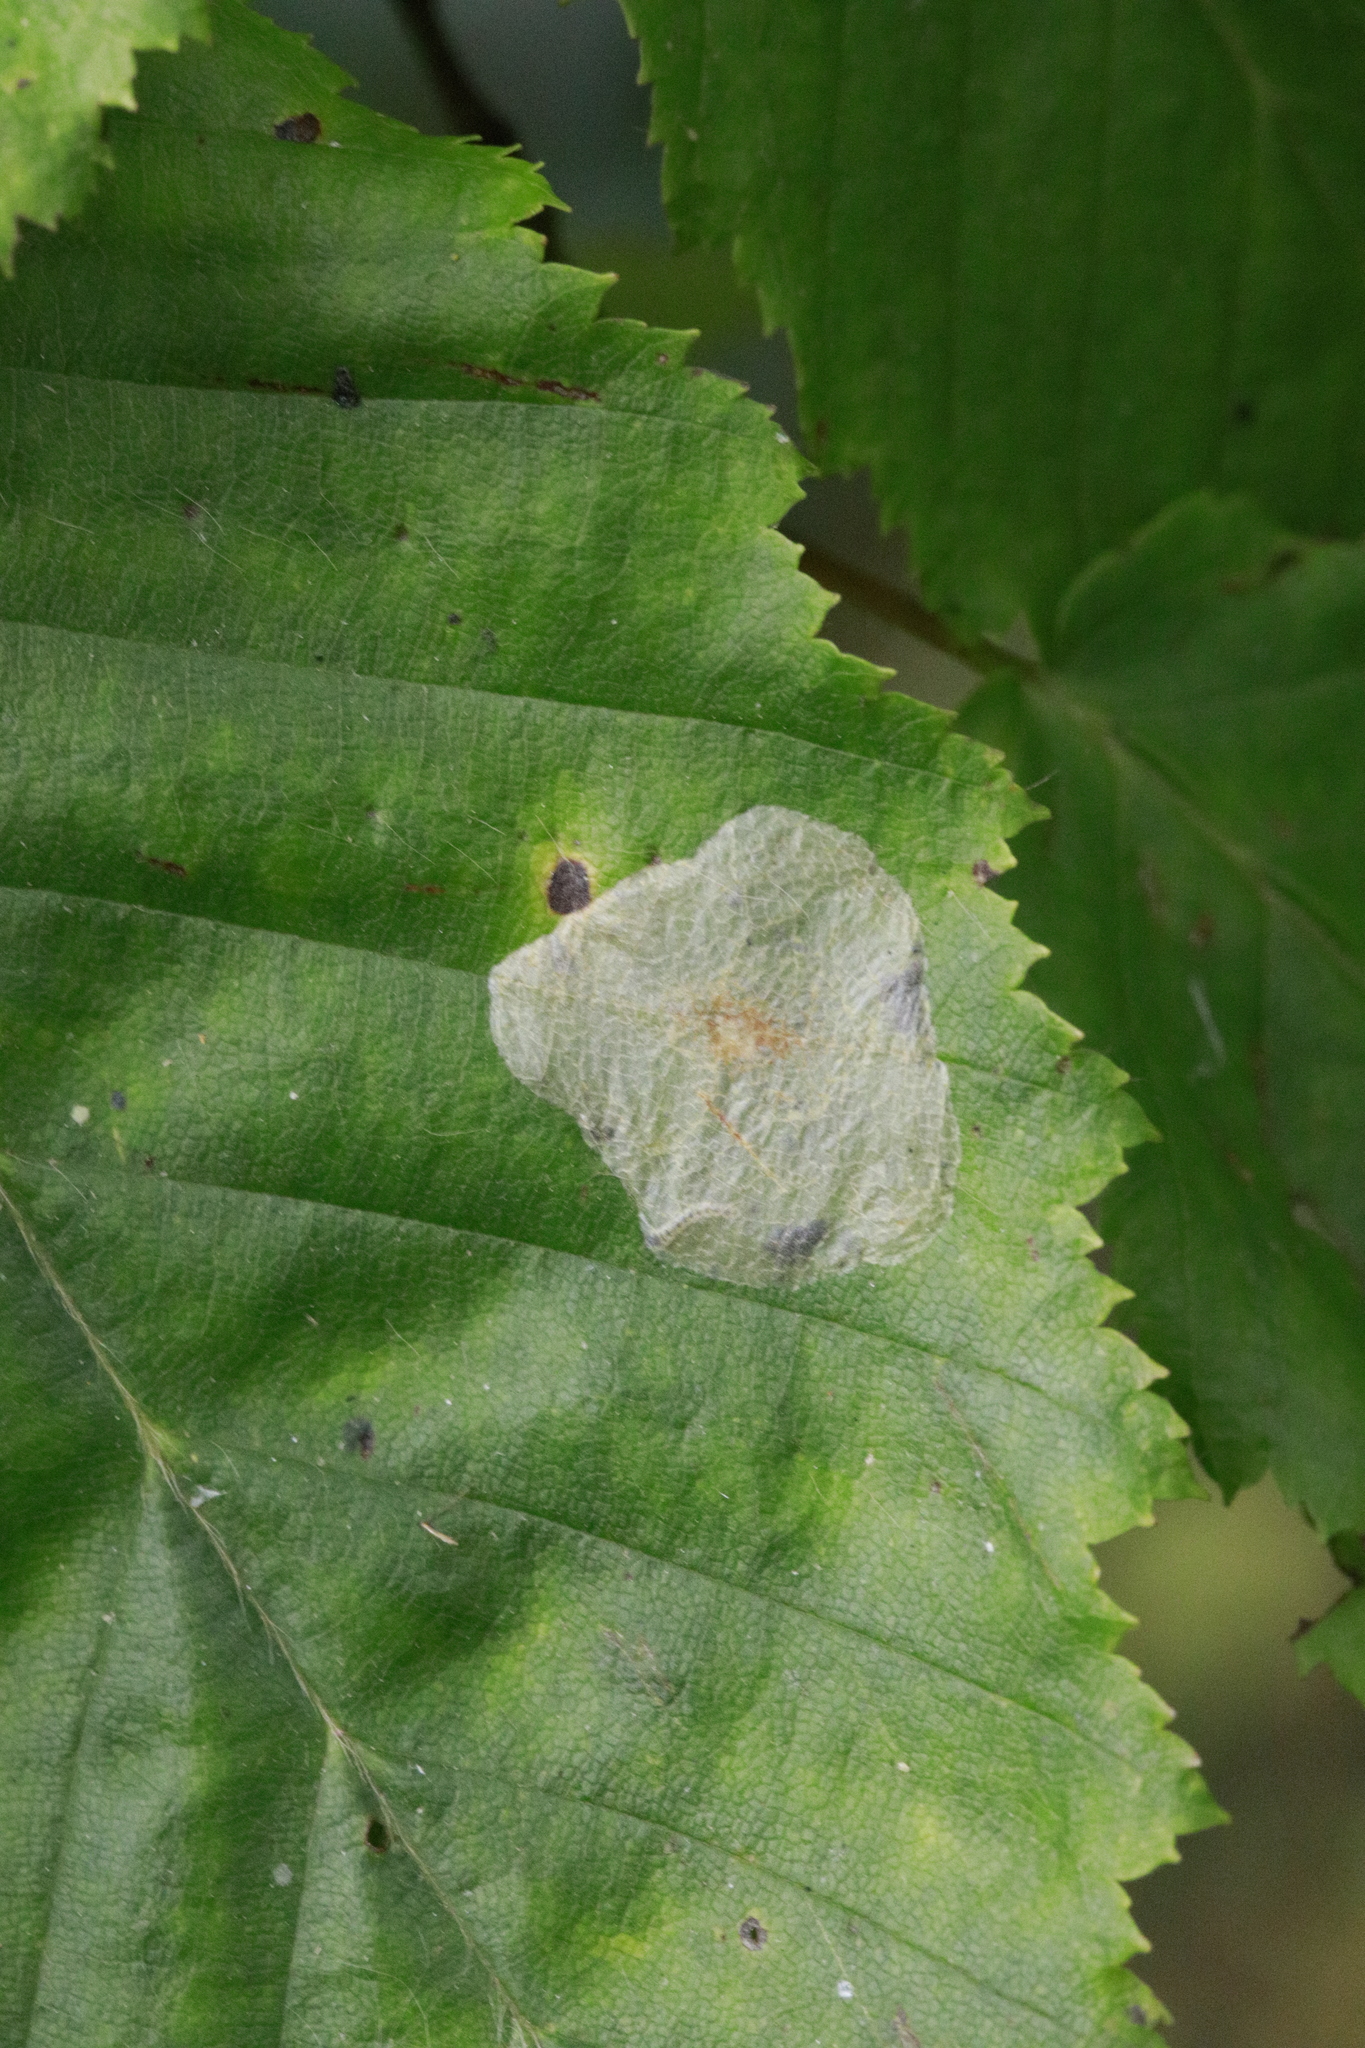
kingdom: Animalia
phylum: Arthropoda
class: Insecta
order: Lepidoptera
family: Gracillariidae
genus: Phyllonorycter
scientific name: Phyllonorycter esperella
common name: Dark hornbeam midget
